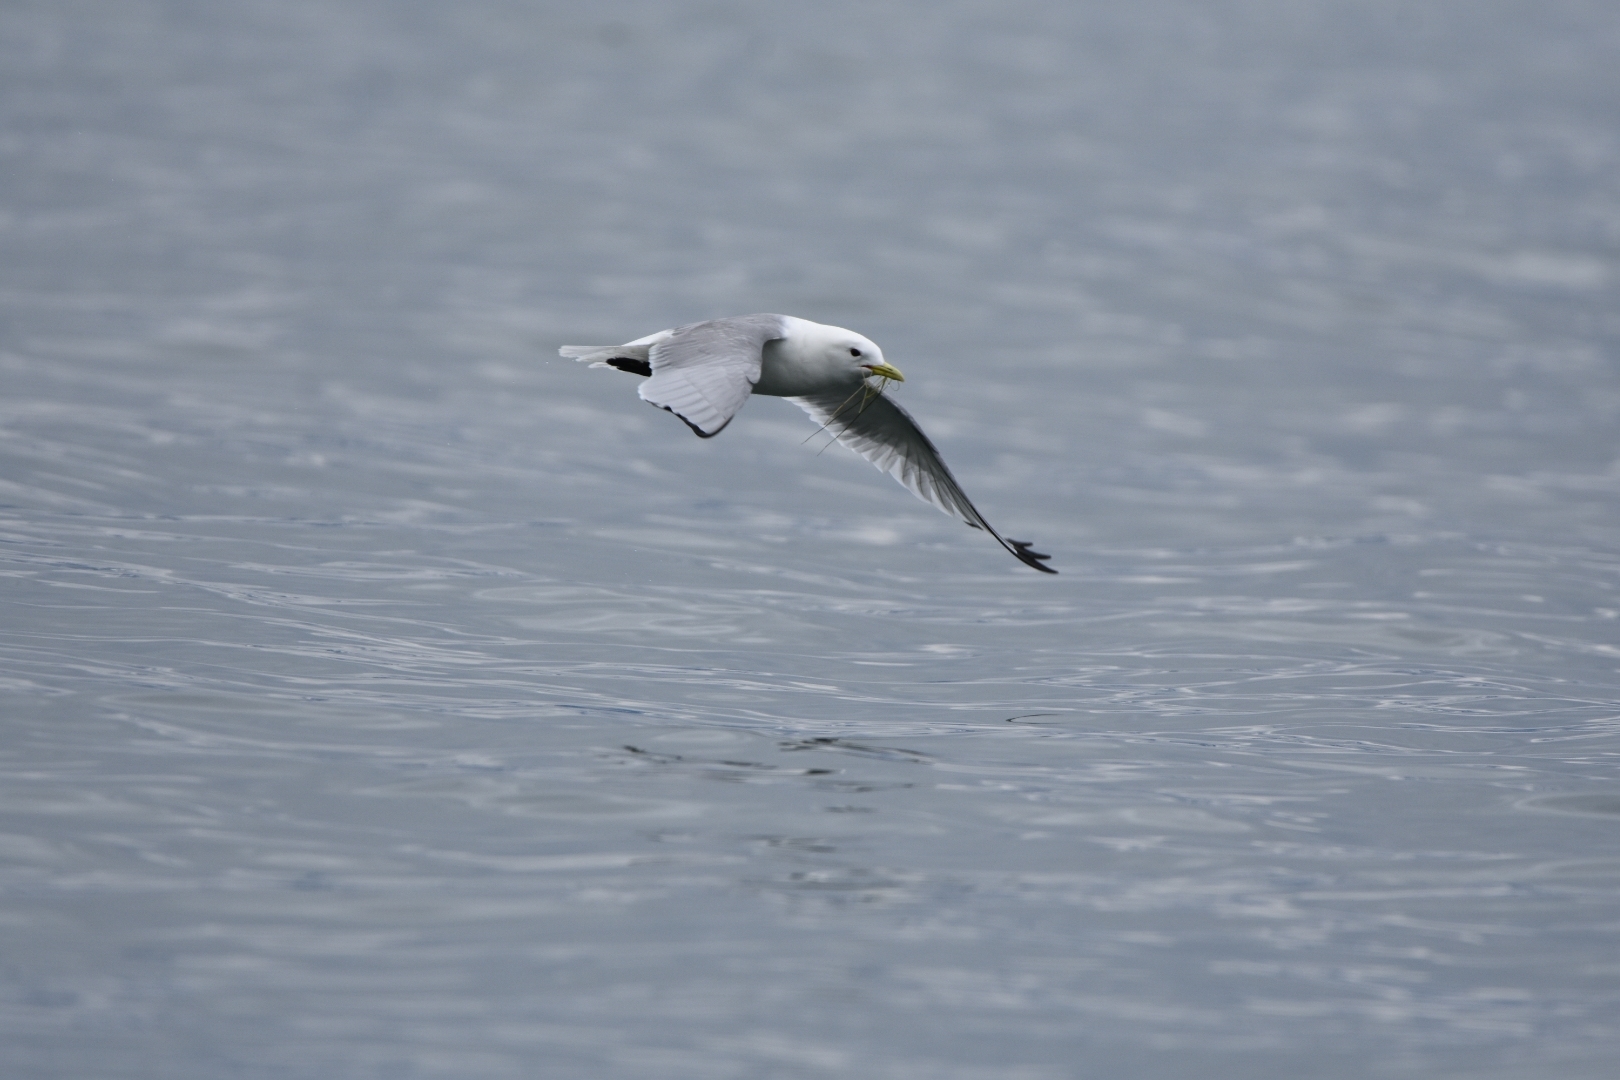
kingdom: Animalia
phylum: Chordata
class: Aves
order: Charadriiformes
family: Laridae
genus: Rissa
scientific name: Rissa tridactyla
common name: Black-legged kittiwake
